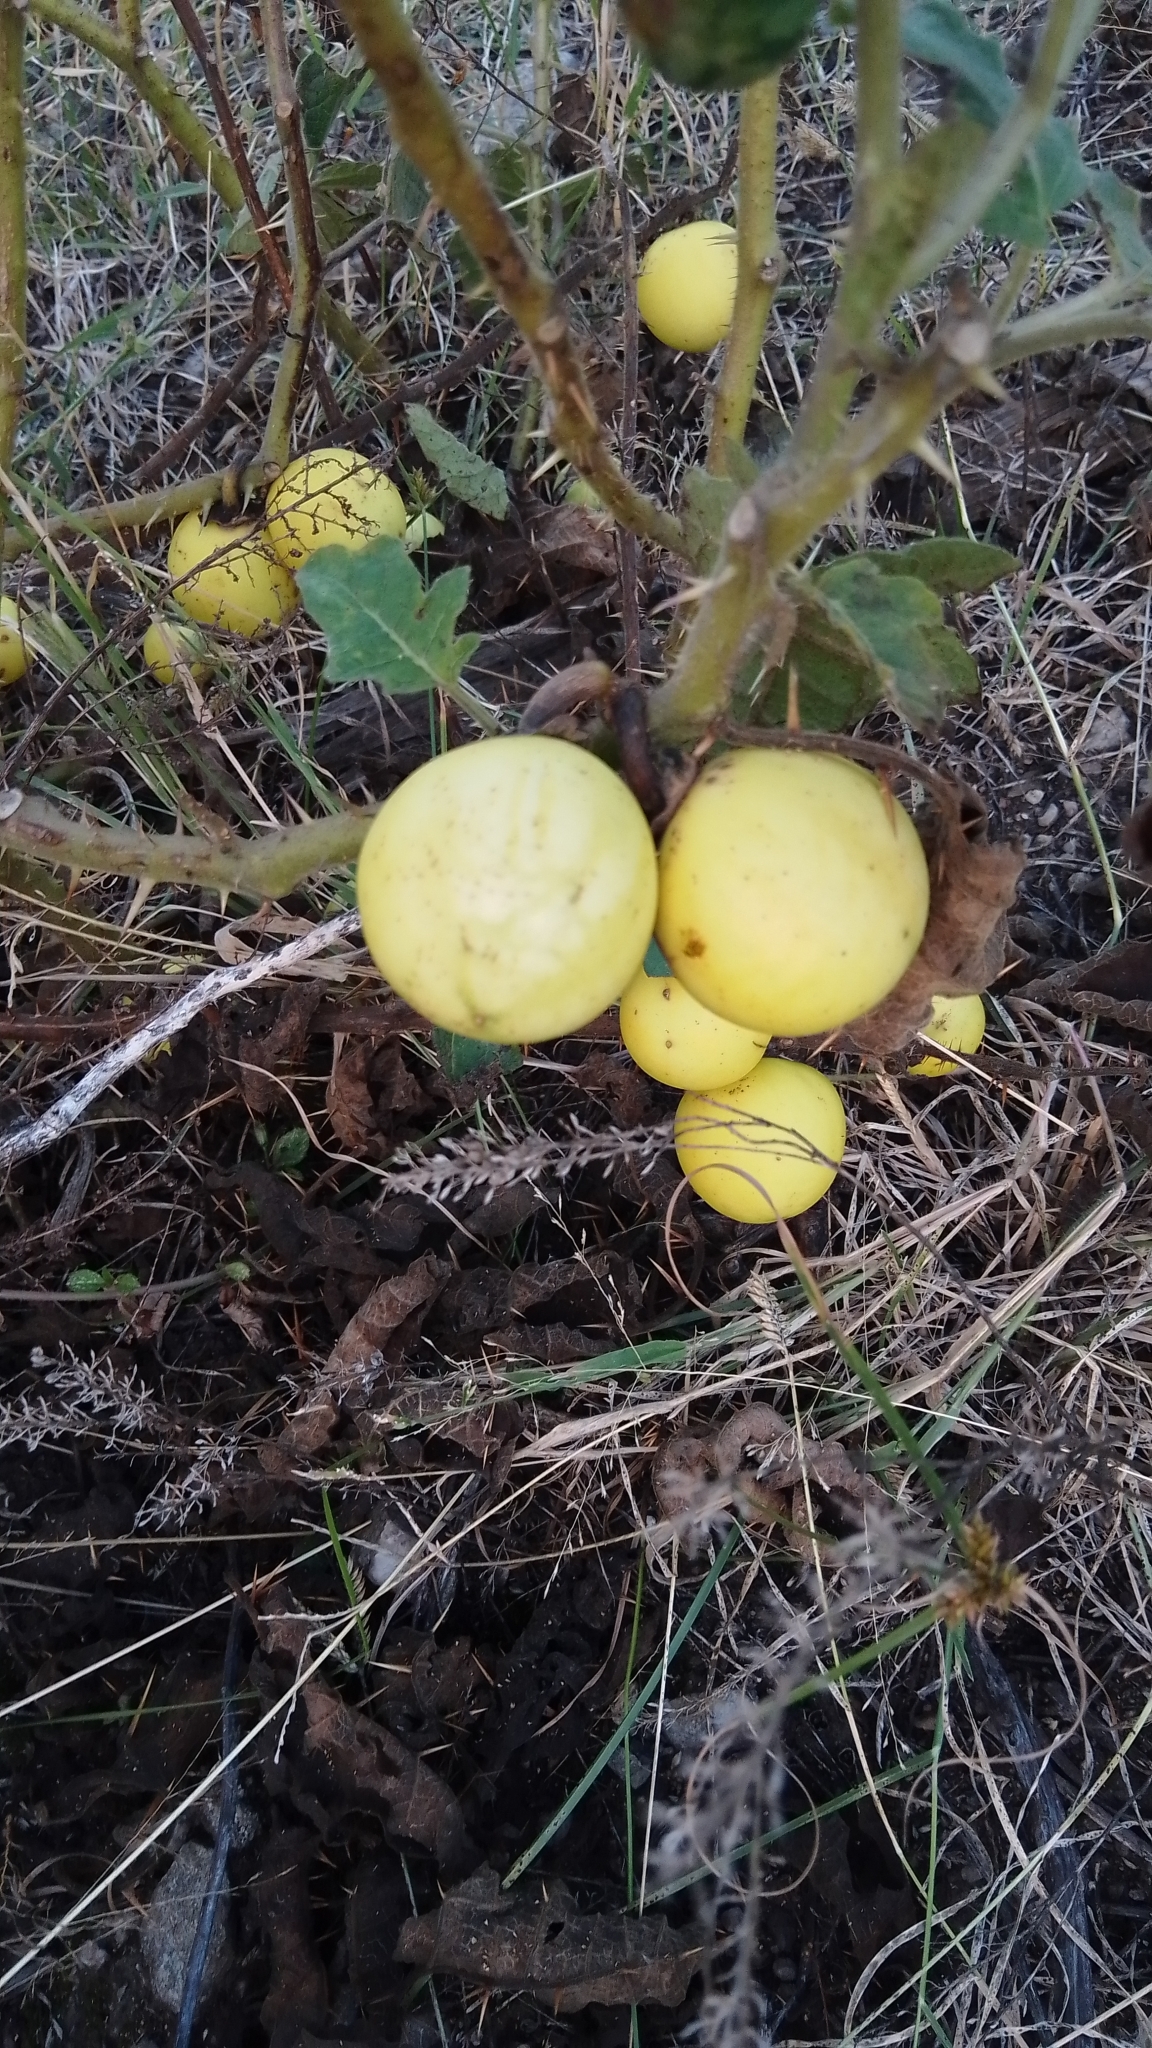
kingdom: Plantae
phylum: Tracheophyta
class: Magnoliopsida
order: Solanales
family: Solanaceae
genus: Solanum
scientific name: Solanum palinacanthum
